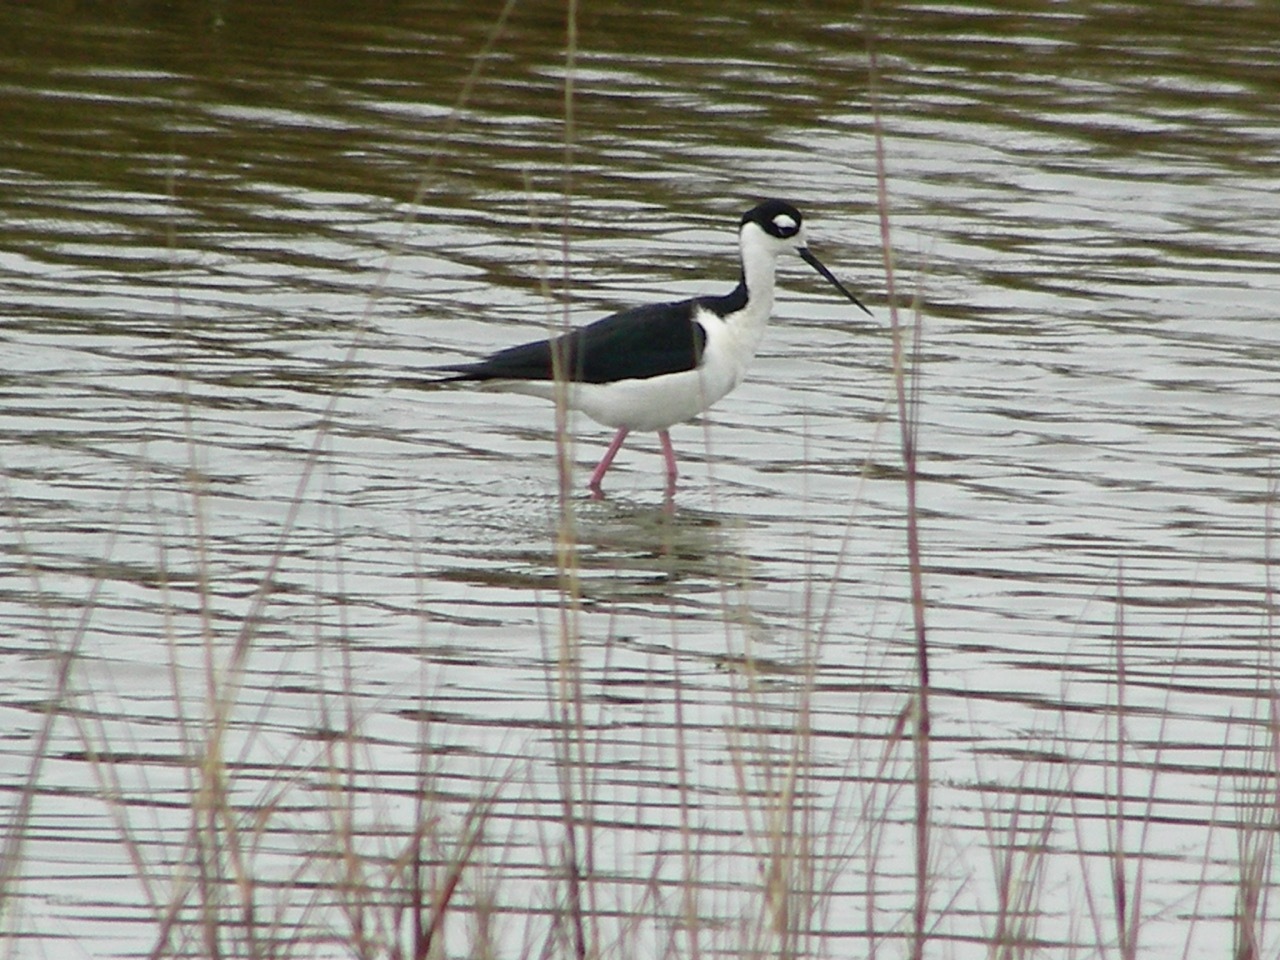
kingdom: Animalia
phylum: Chordata
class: Aves
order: Charadriiformes
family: Recurvirostridae
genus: Himantopus
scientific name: Himantopus mexicanus
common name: Black-necked stilt
